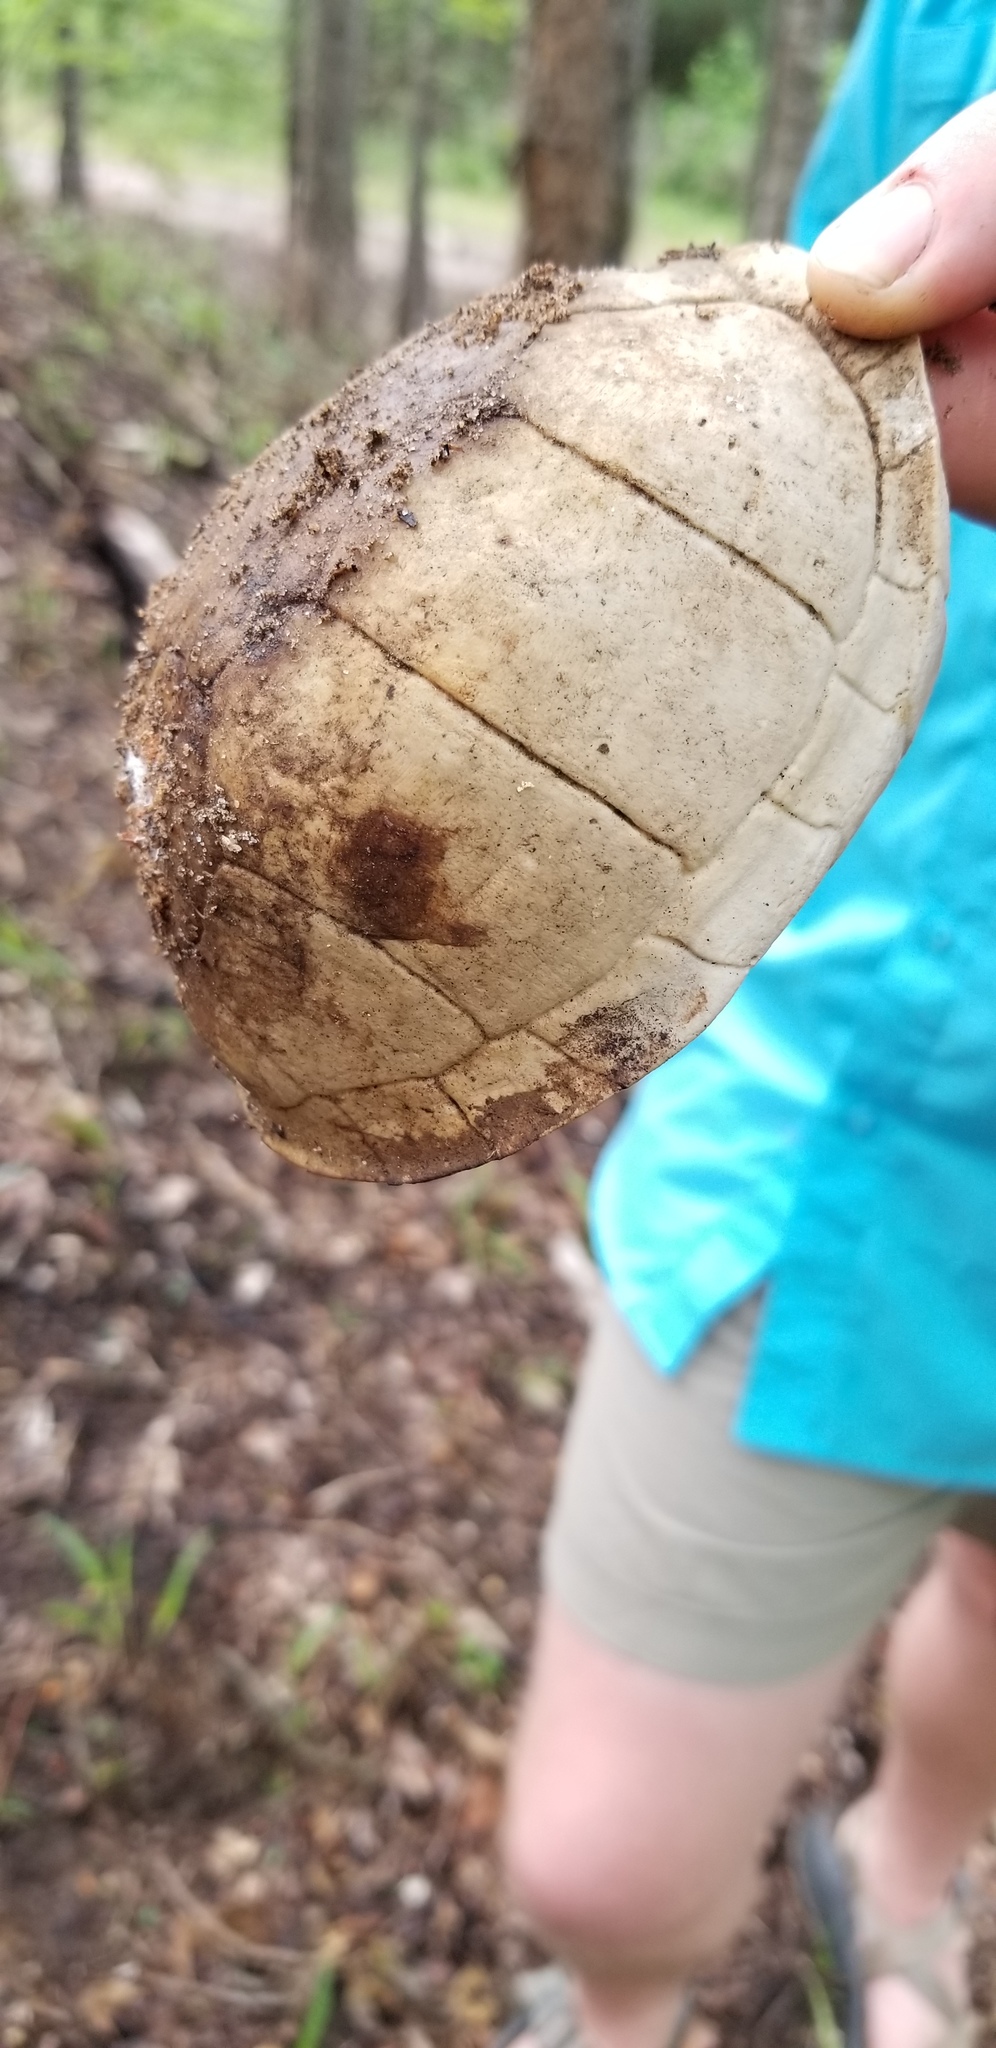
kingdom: Animalia
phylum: Chordata
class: Testudines
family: Emydidae
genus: Terrapene
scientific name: Terrapene carolina
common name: Common box turtle
